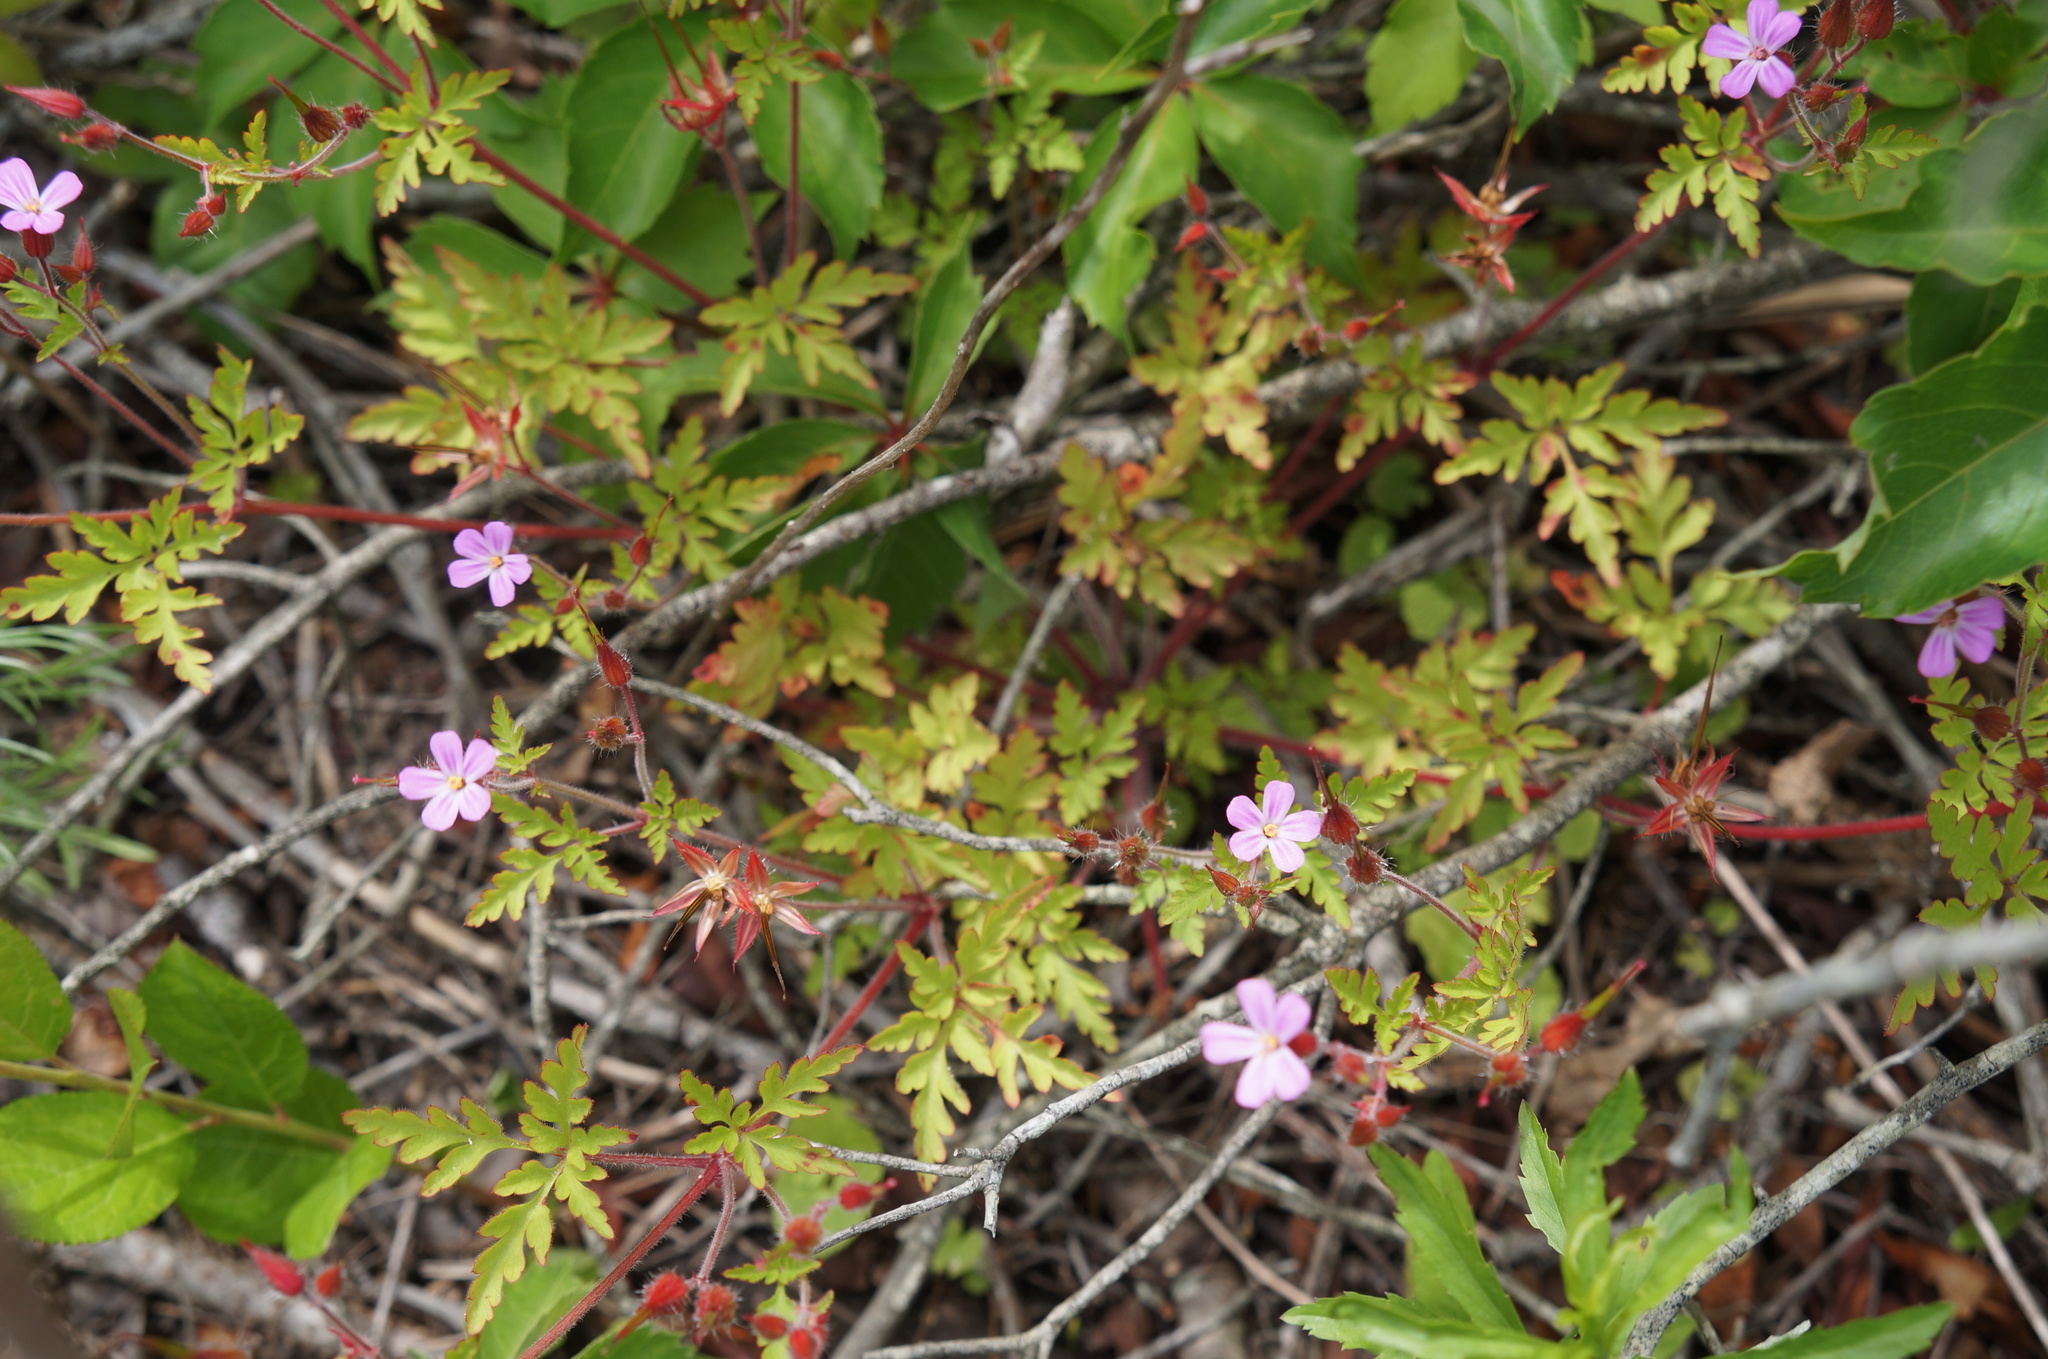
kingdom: Plantae
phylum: Tracheophyta
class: Magnoliopsida
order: Geraniales
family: Geraniaceae
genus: Geranium
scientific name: Geranium robertianum
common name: Herb-robert
